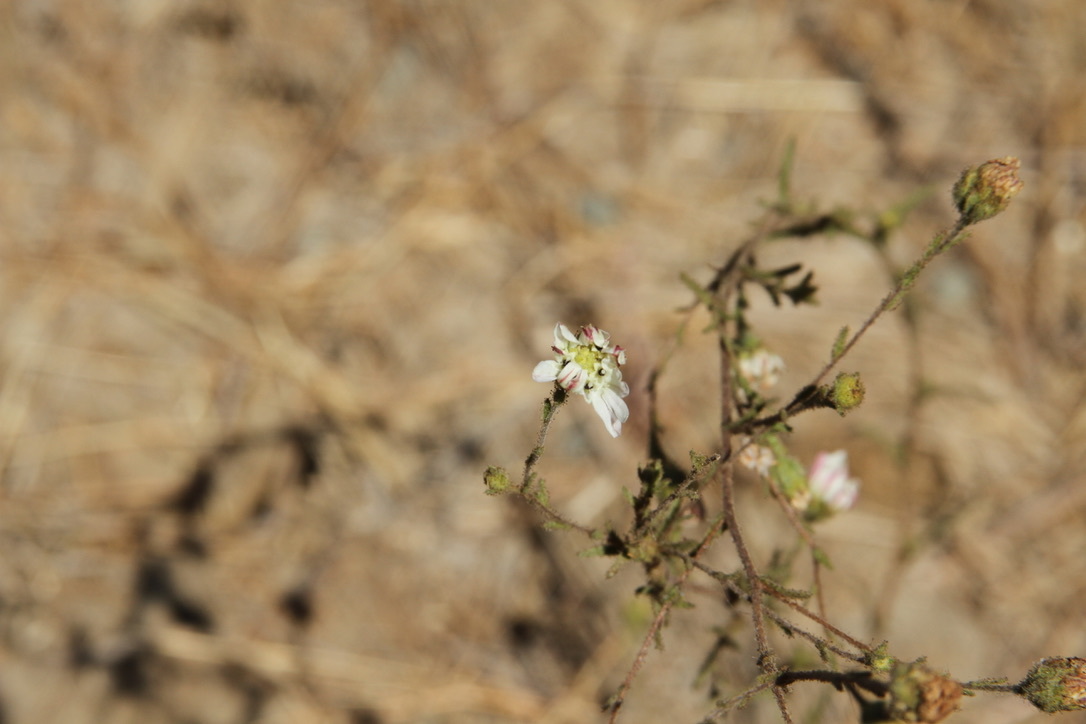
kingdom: Plantae
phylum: Tracheophyta
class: Magnoliopsida
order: Asterales
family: Asteraceae
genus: Hemizonia
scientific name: Hemizonia congesta
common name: Hayfield tarweed
